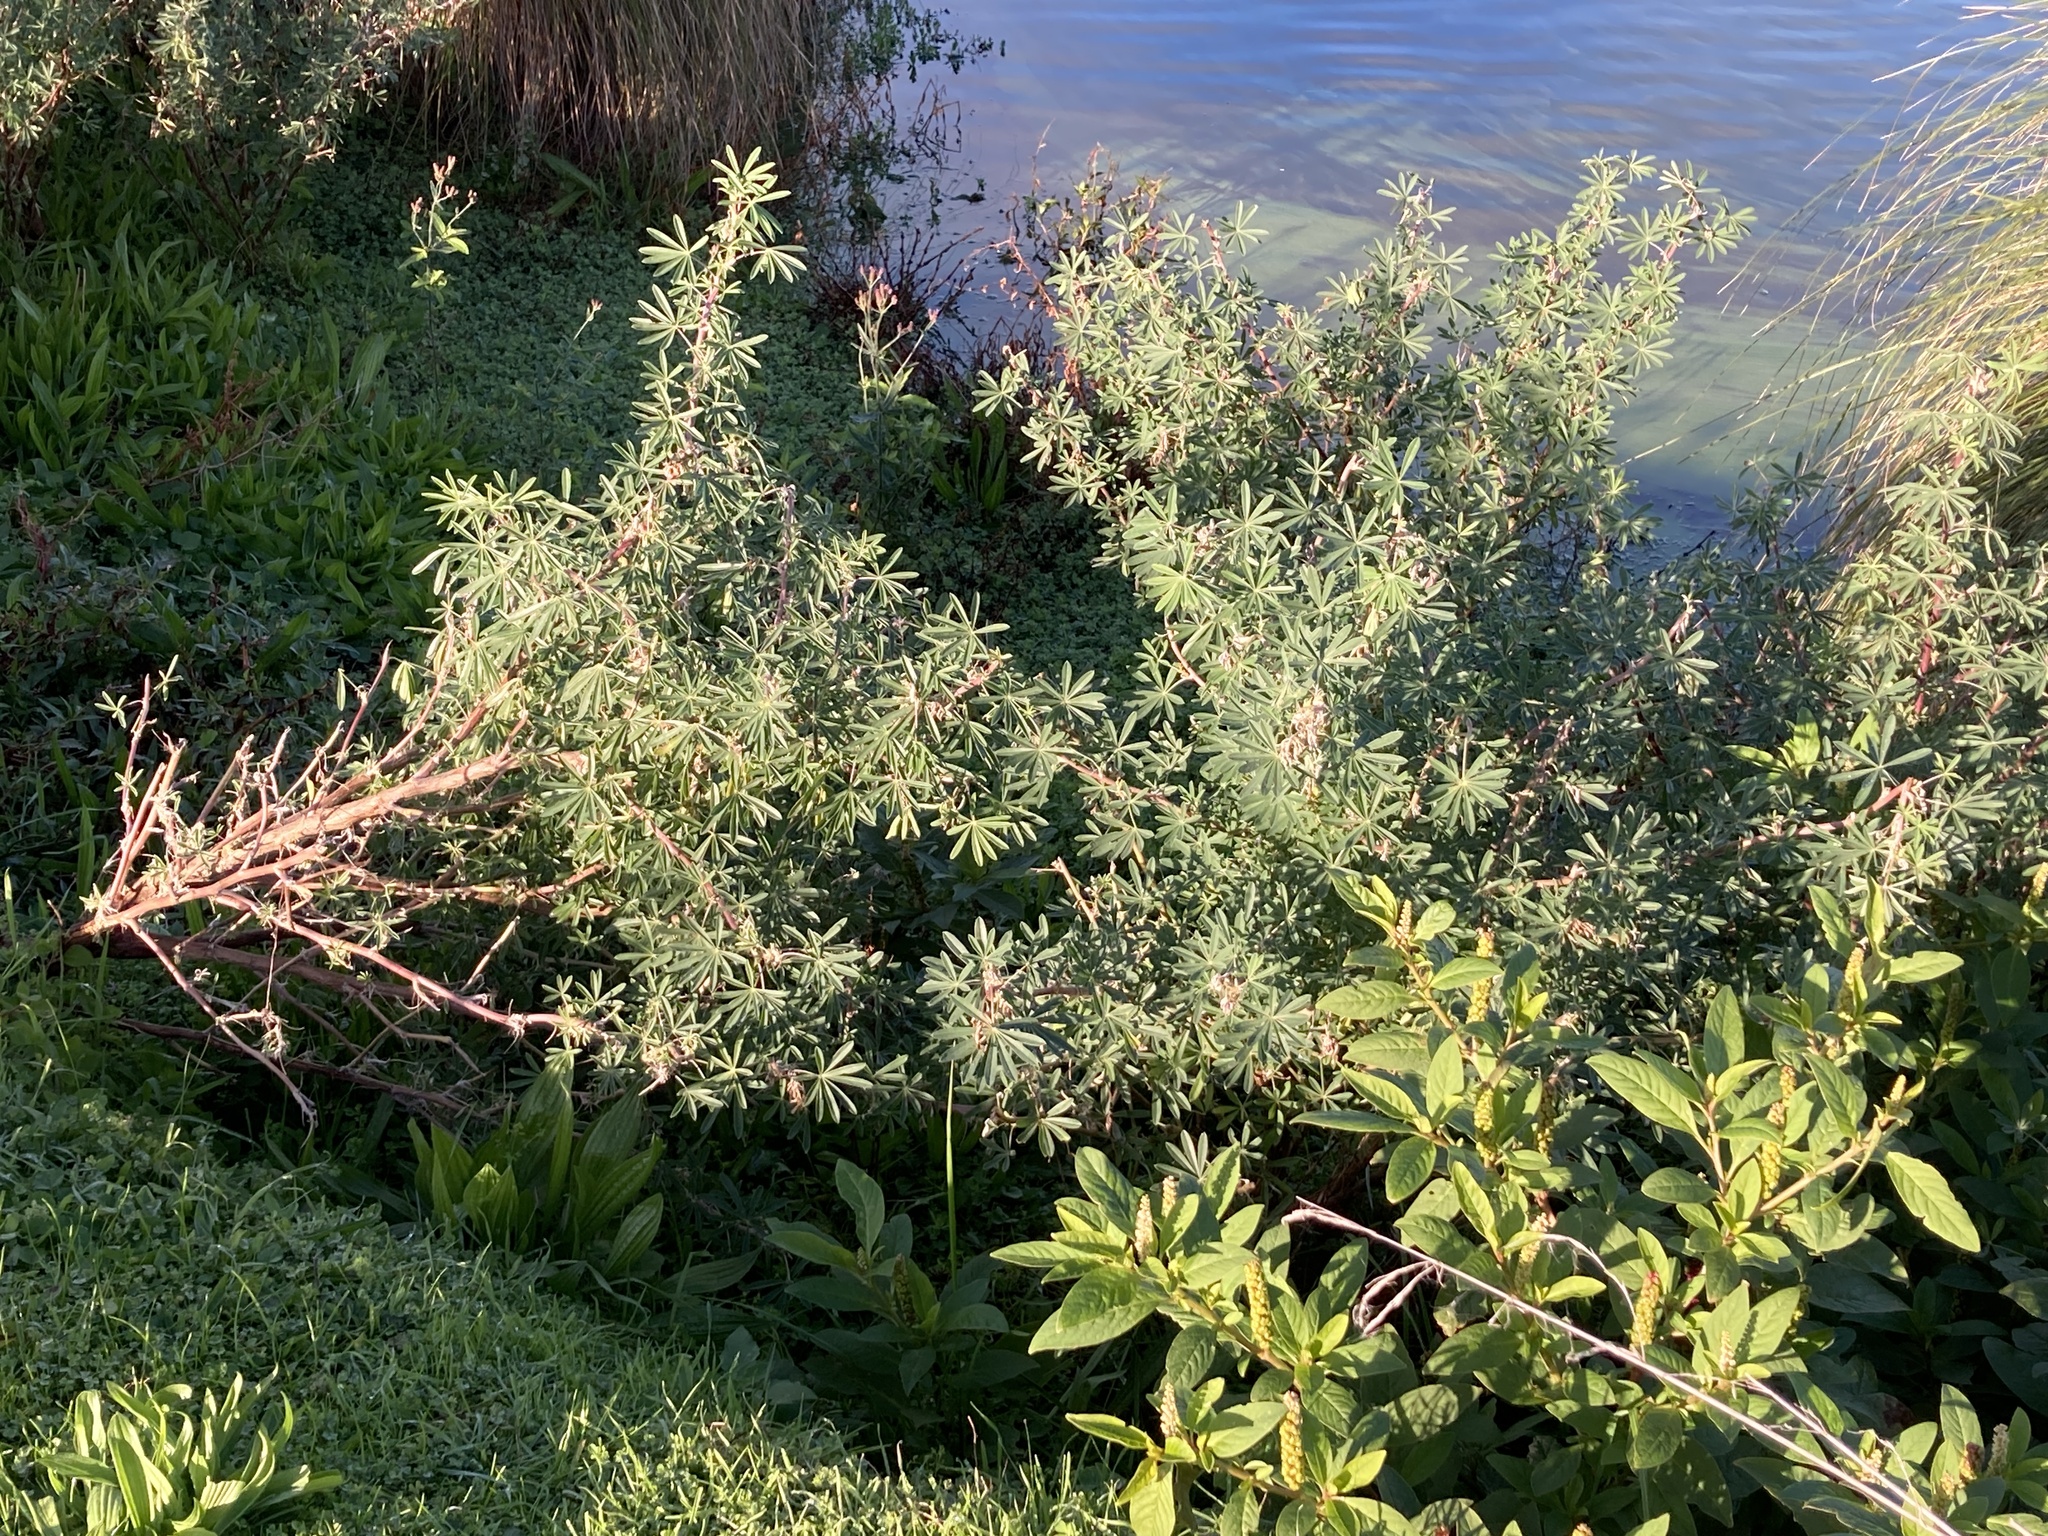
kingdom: Plantae
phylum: Tracheophyta
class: Magnoliopsida
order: Fabales
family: Fabaceae
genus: Lupinus
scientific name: Lupinus arboreus
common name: Yellow bush lupine
